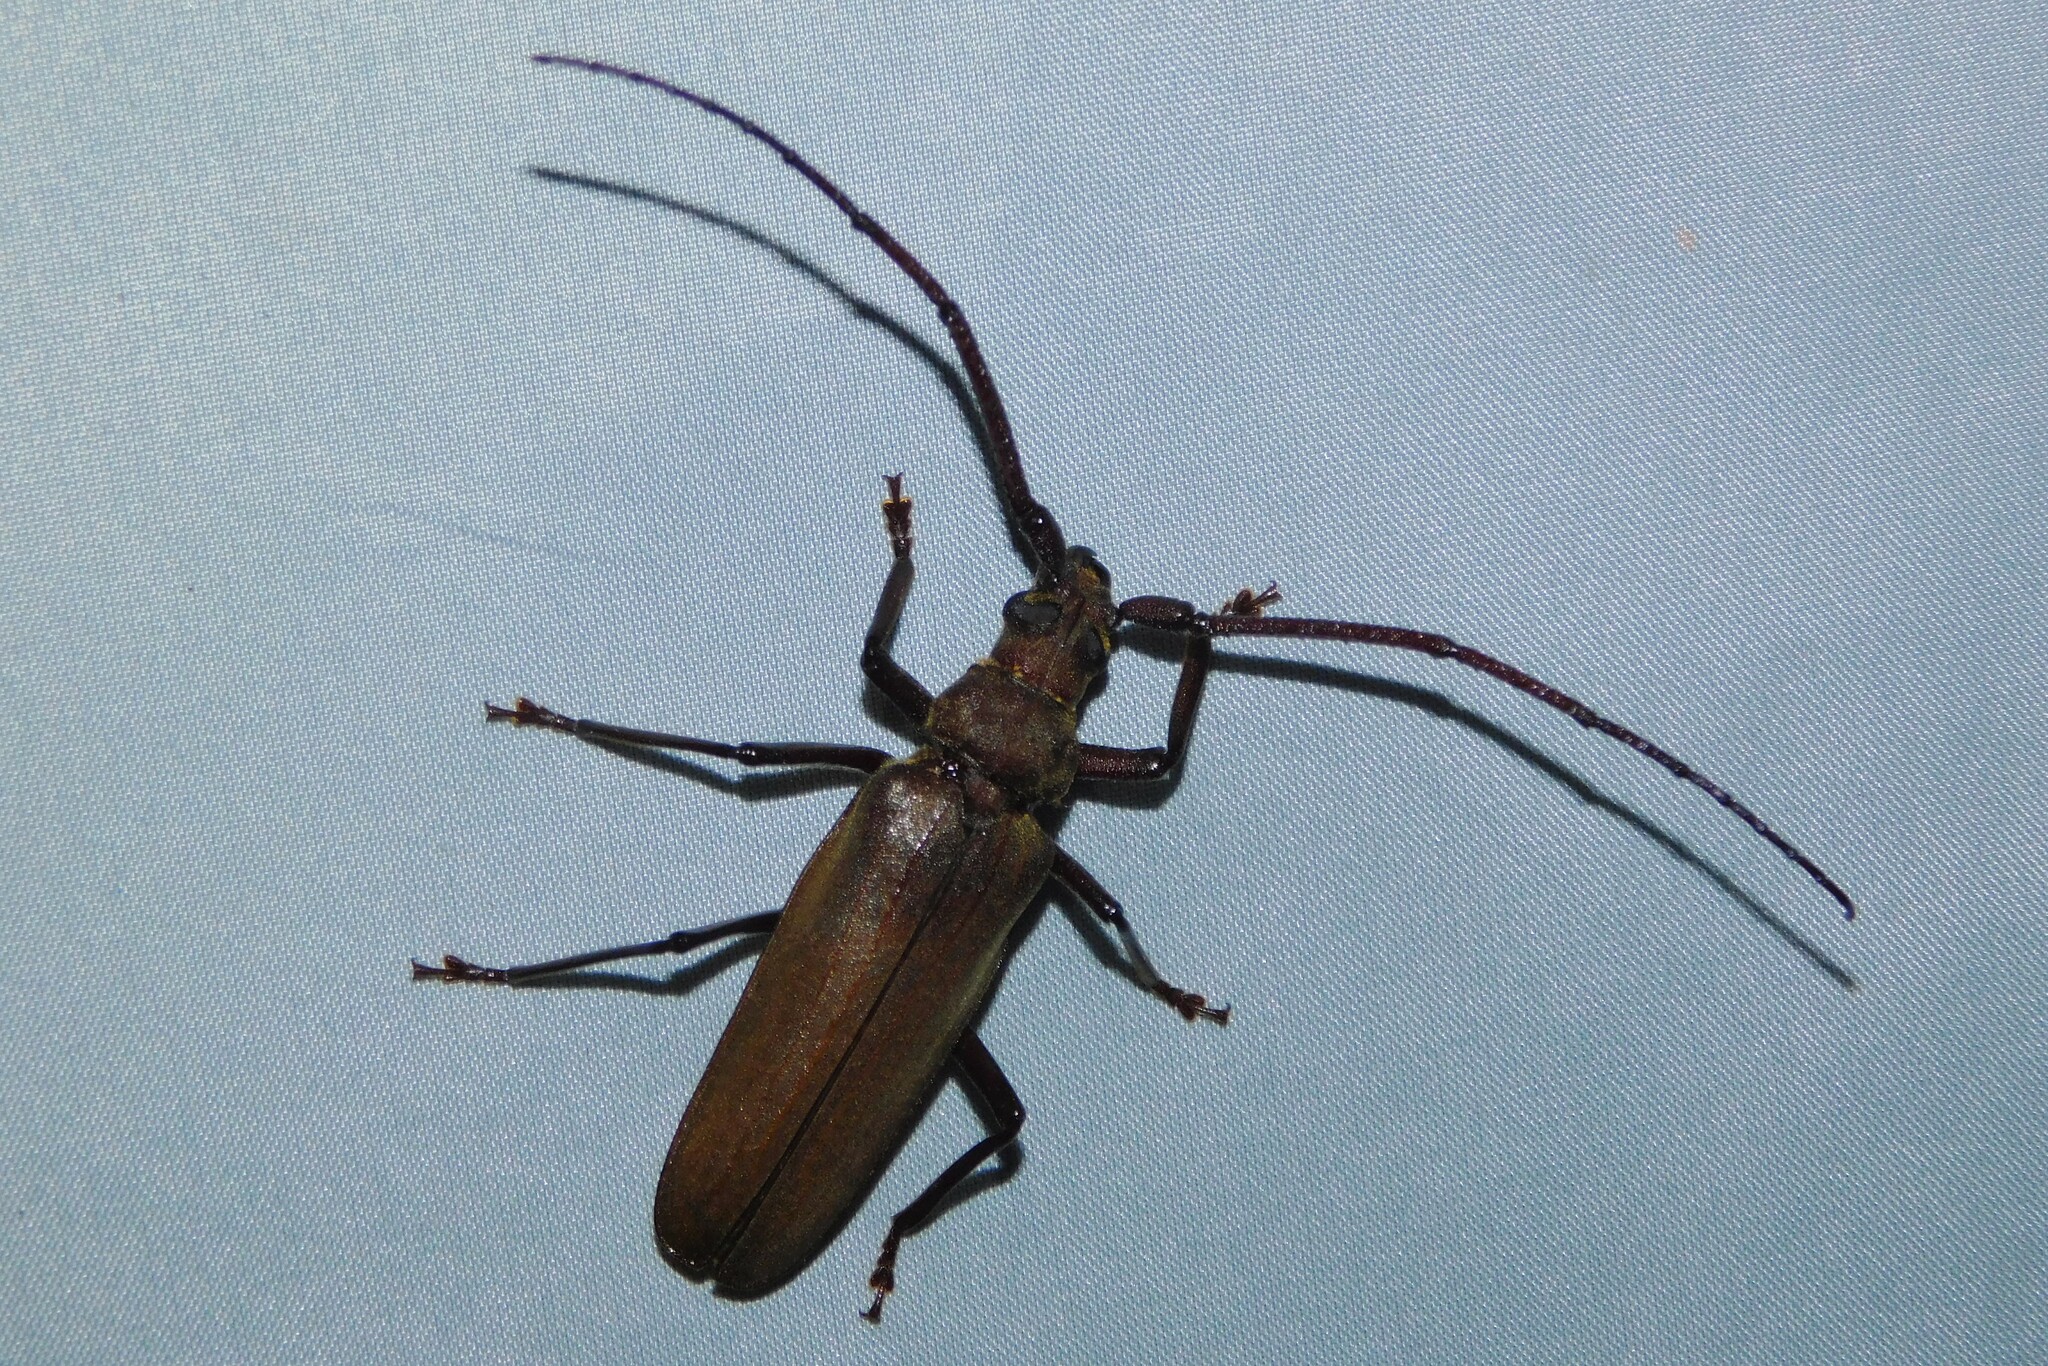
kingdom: Animalia
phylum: Arthropoda
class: Insecta
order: Coleoptera
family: Cerambycidae
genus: Aegosoma
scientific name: Aegosoma scabricorne
